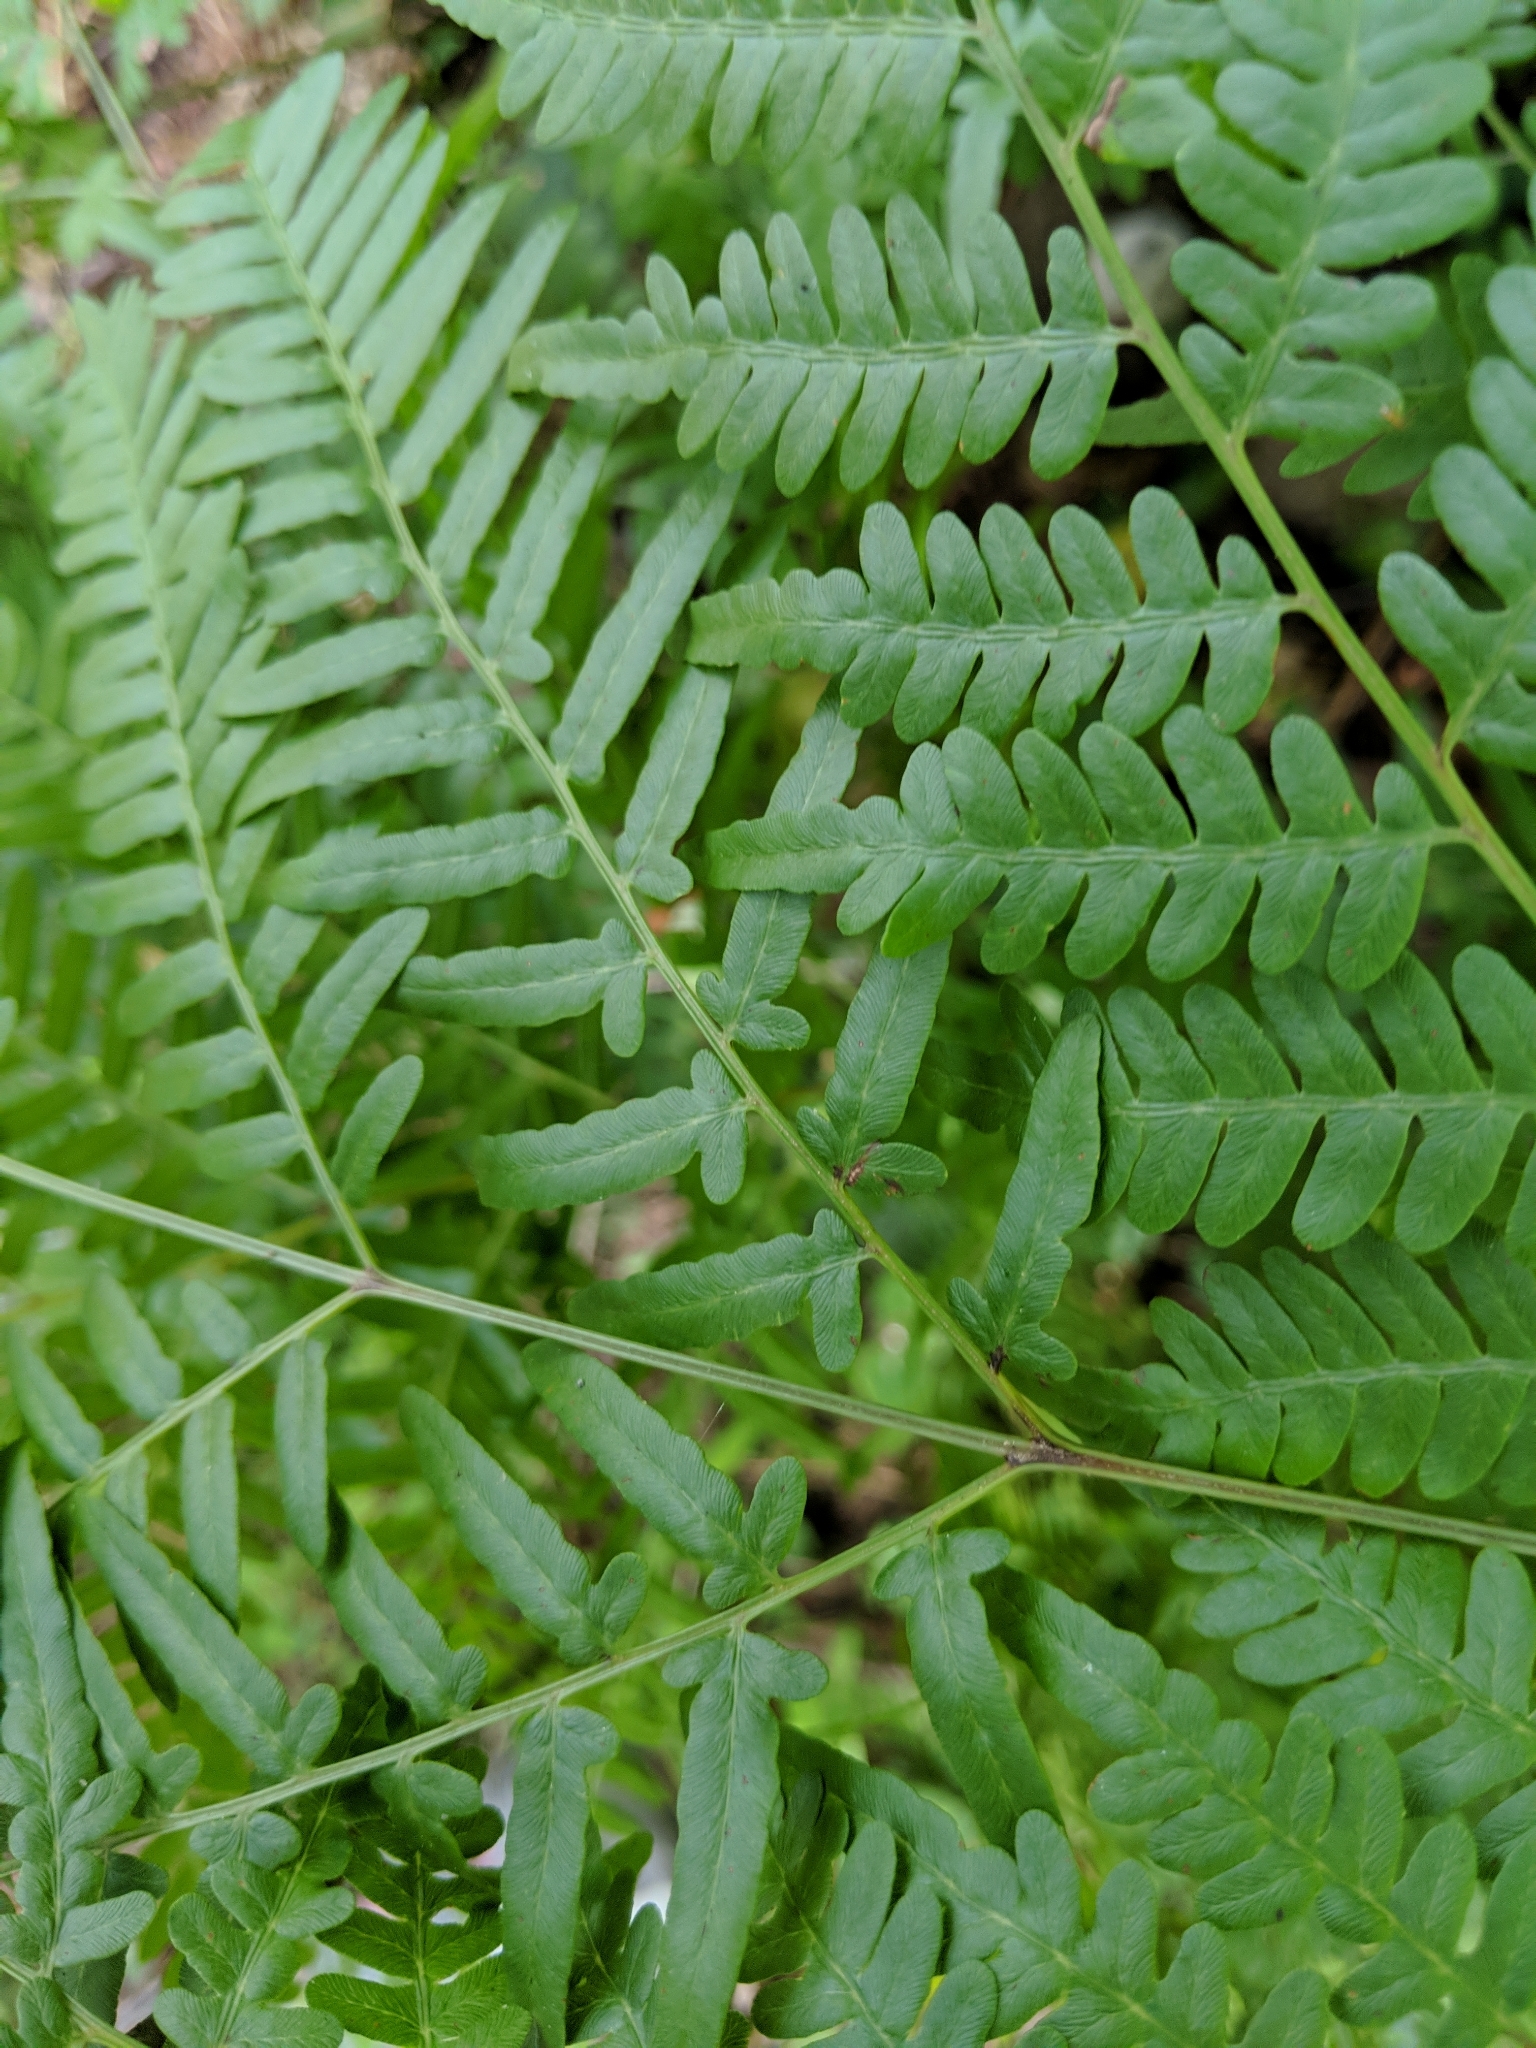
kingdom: Plantae
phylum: Tracheophyta
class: Polypodiopsida
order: Polypodiales
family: Dennstaedtiaceae
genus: Pteridium
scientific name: Pteridium aquilinum
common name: Bracken
